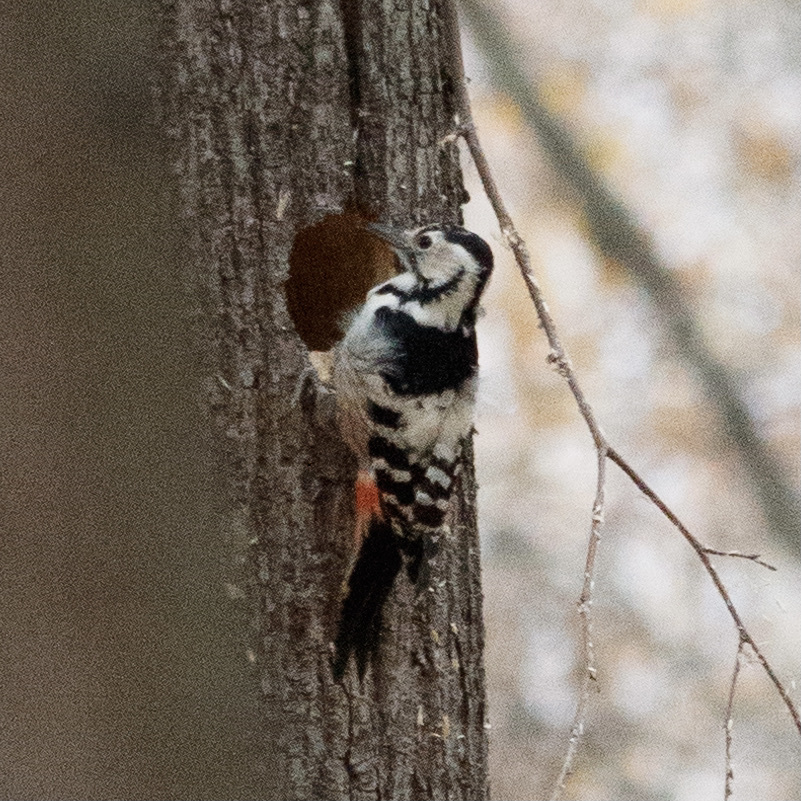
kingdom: Animalia
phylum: Chordata
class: Aves
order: Piciformes
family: Picidae
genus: Dendrocopos
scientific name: Dendrocopos leucotos
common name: White-backed woodpecker
